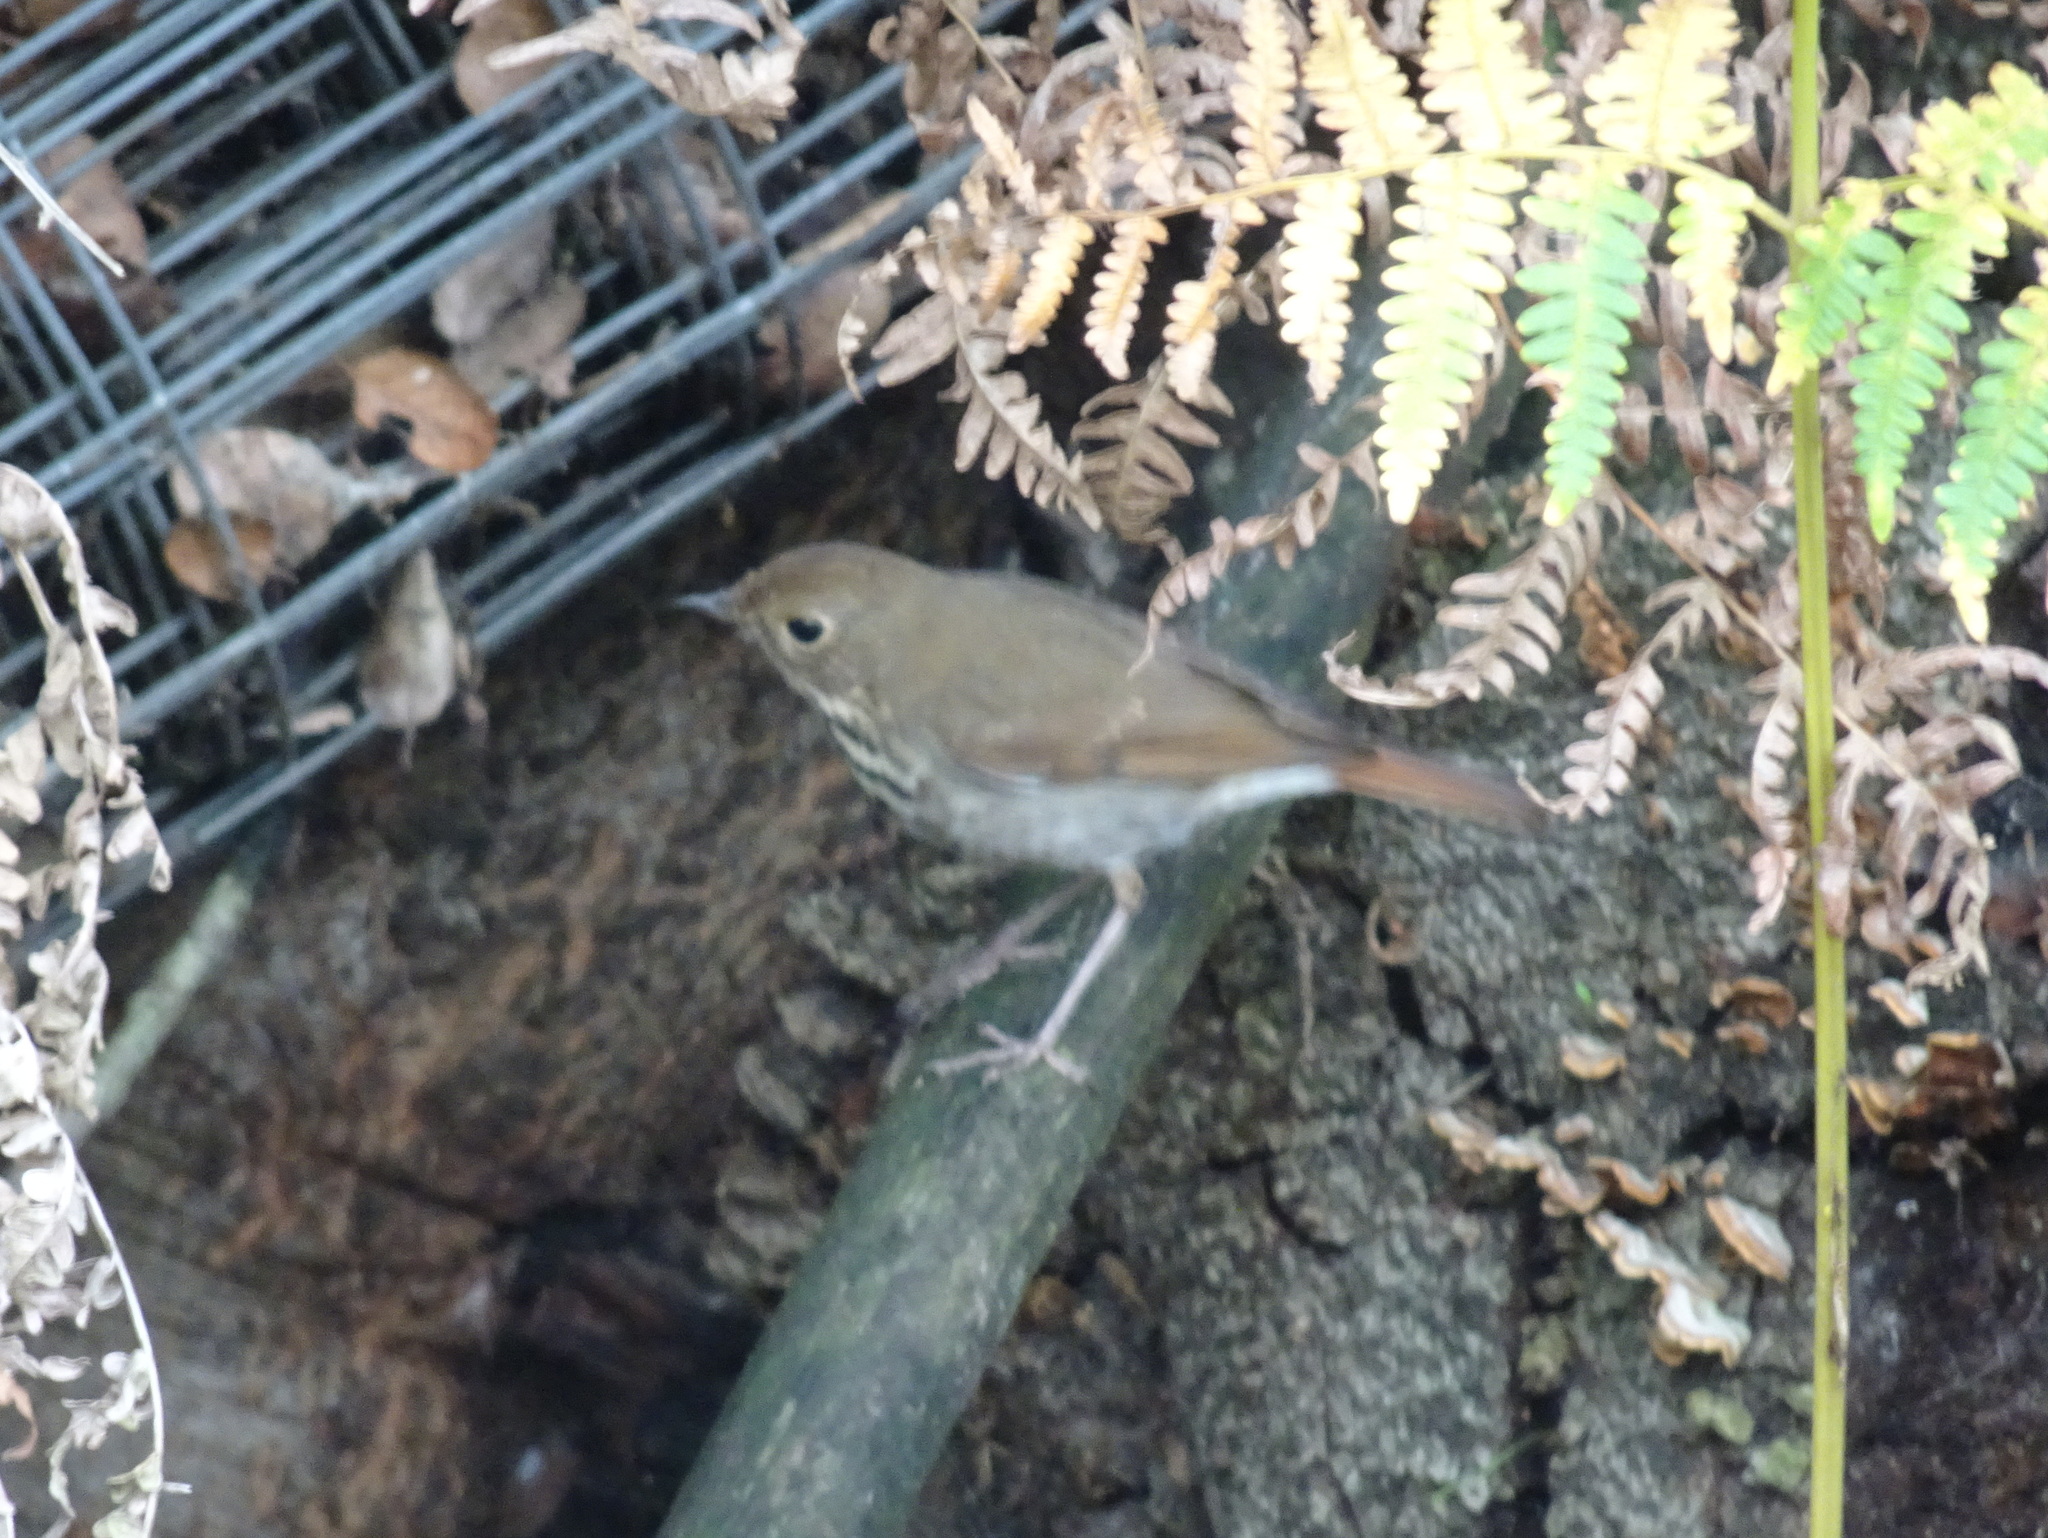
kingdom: Animalia
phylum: Chordata
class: Aves
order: Passeriformes
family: Turdidae
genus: Catharus
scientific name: Catharus guttatus
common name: Hermit thrush
